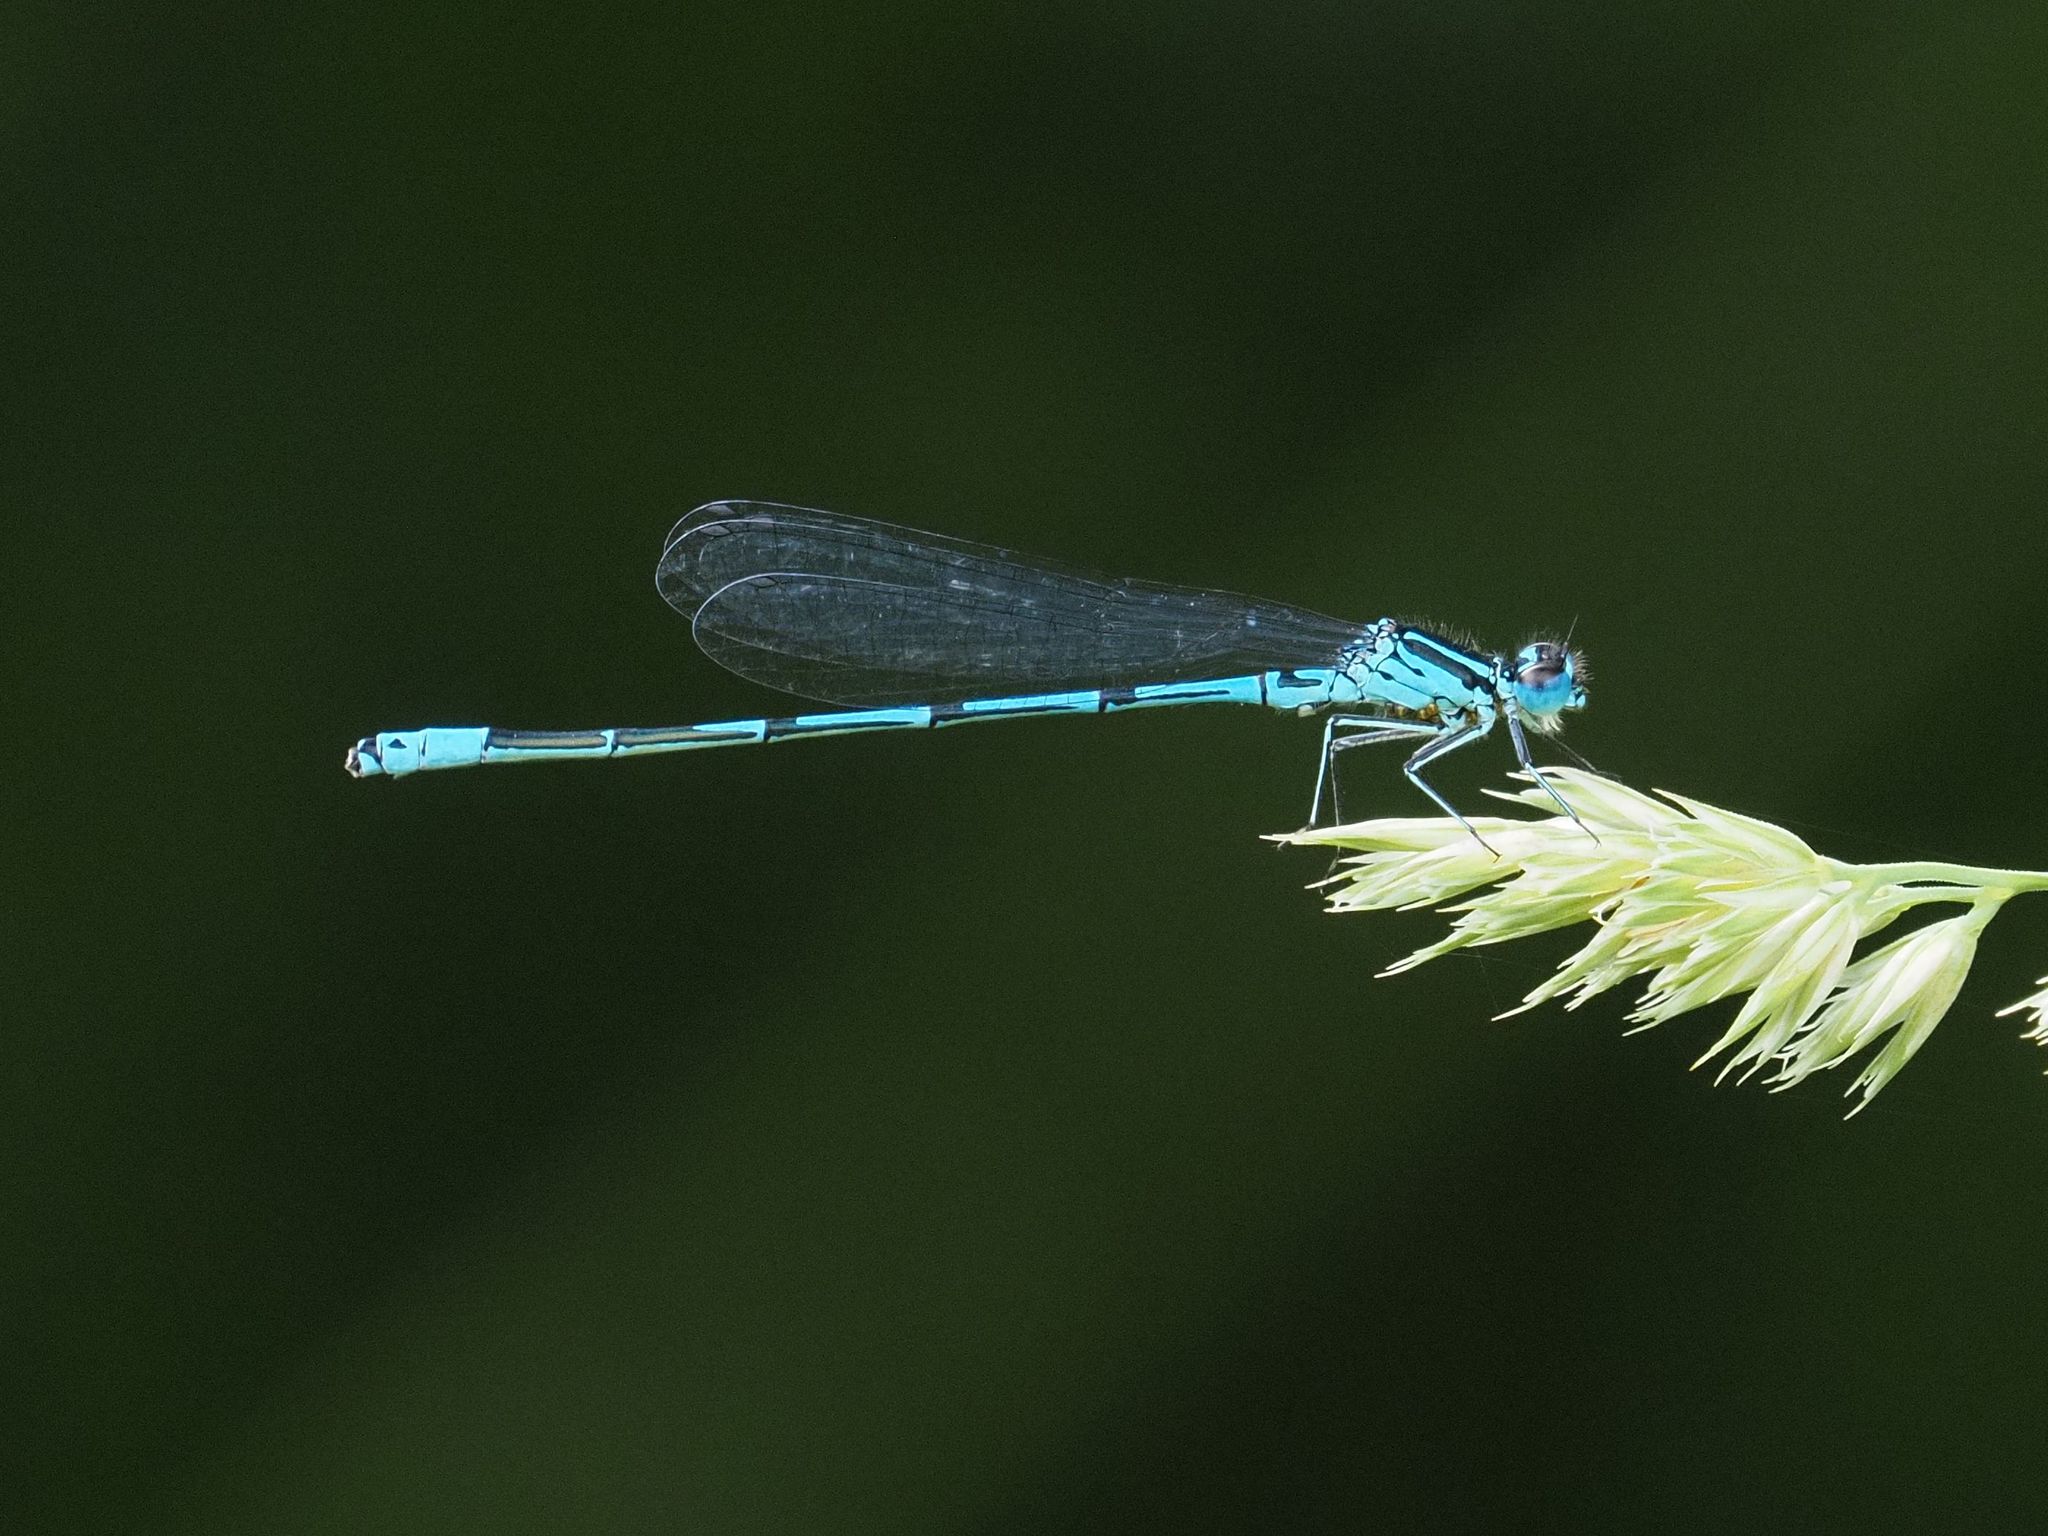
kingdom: Animalia
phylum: Arthropoda
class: Insecta
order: Odonata
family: Coenagrionidae
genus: Coenagrion
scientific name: Coenagrion puella
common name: Azure damselfly
